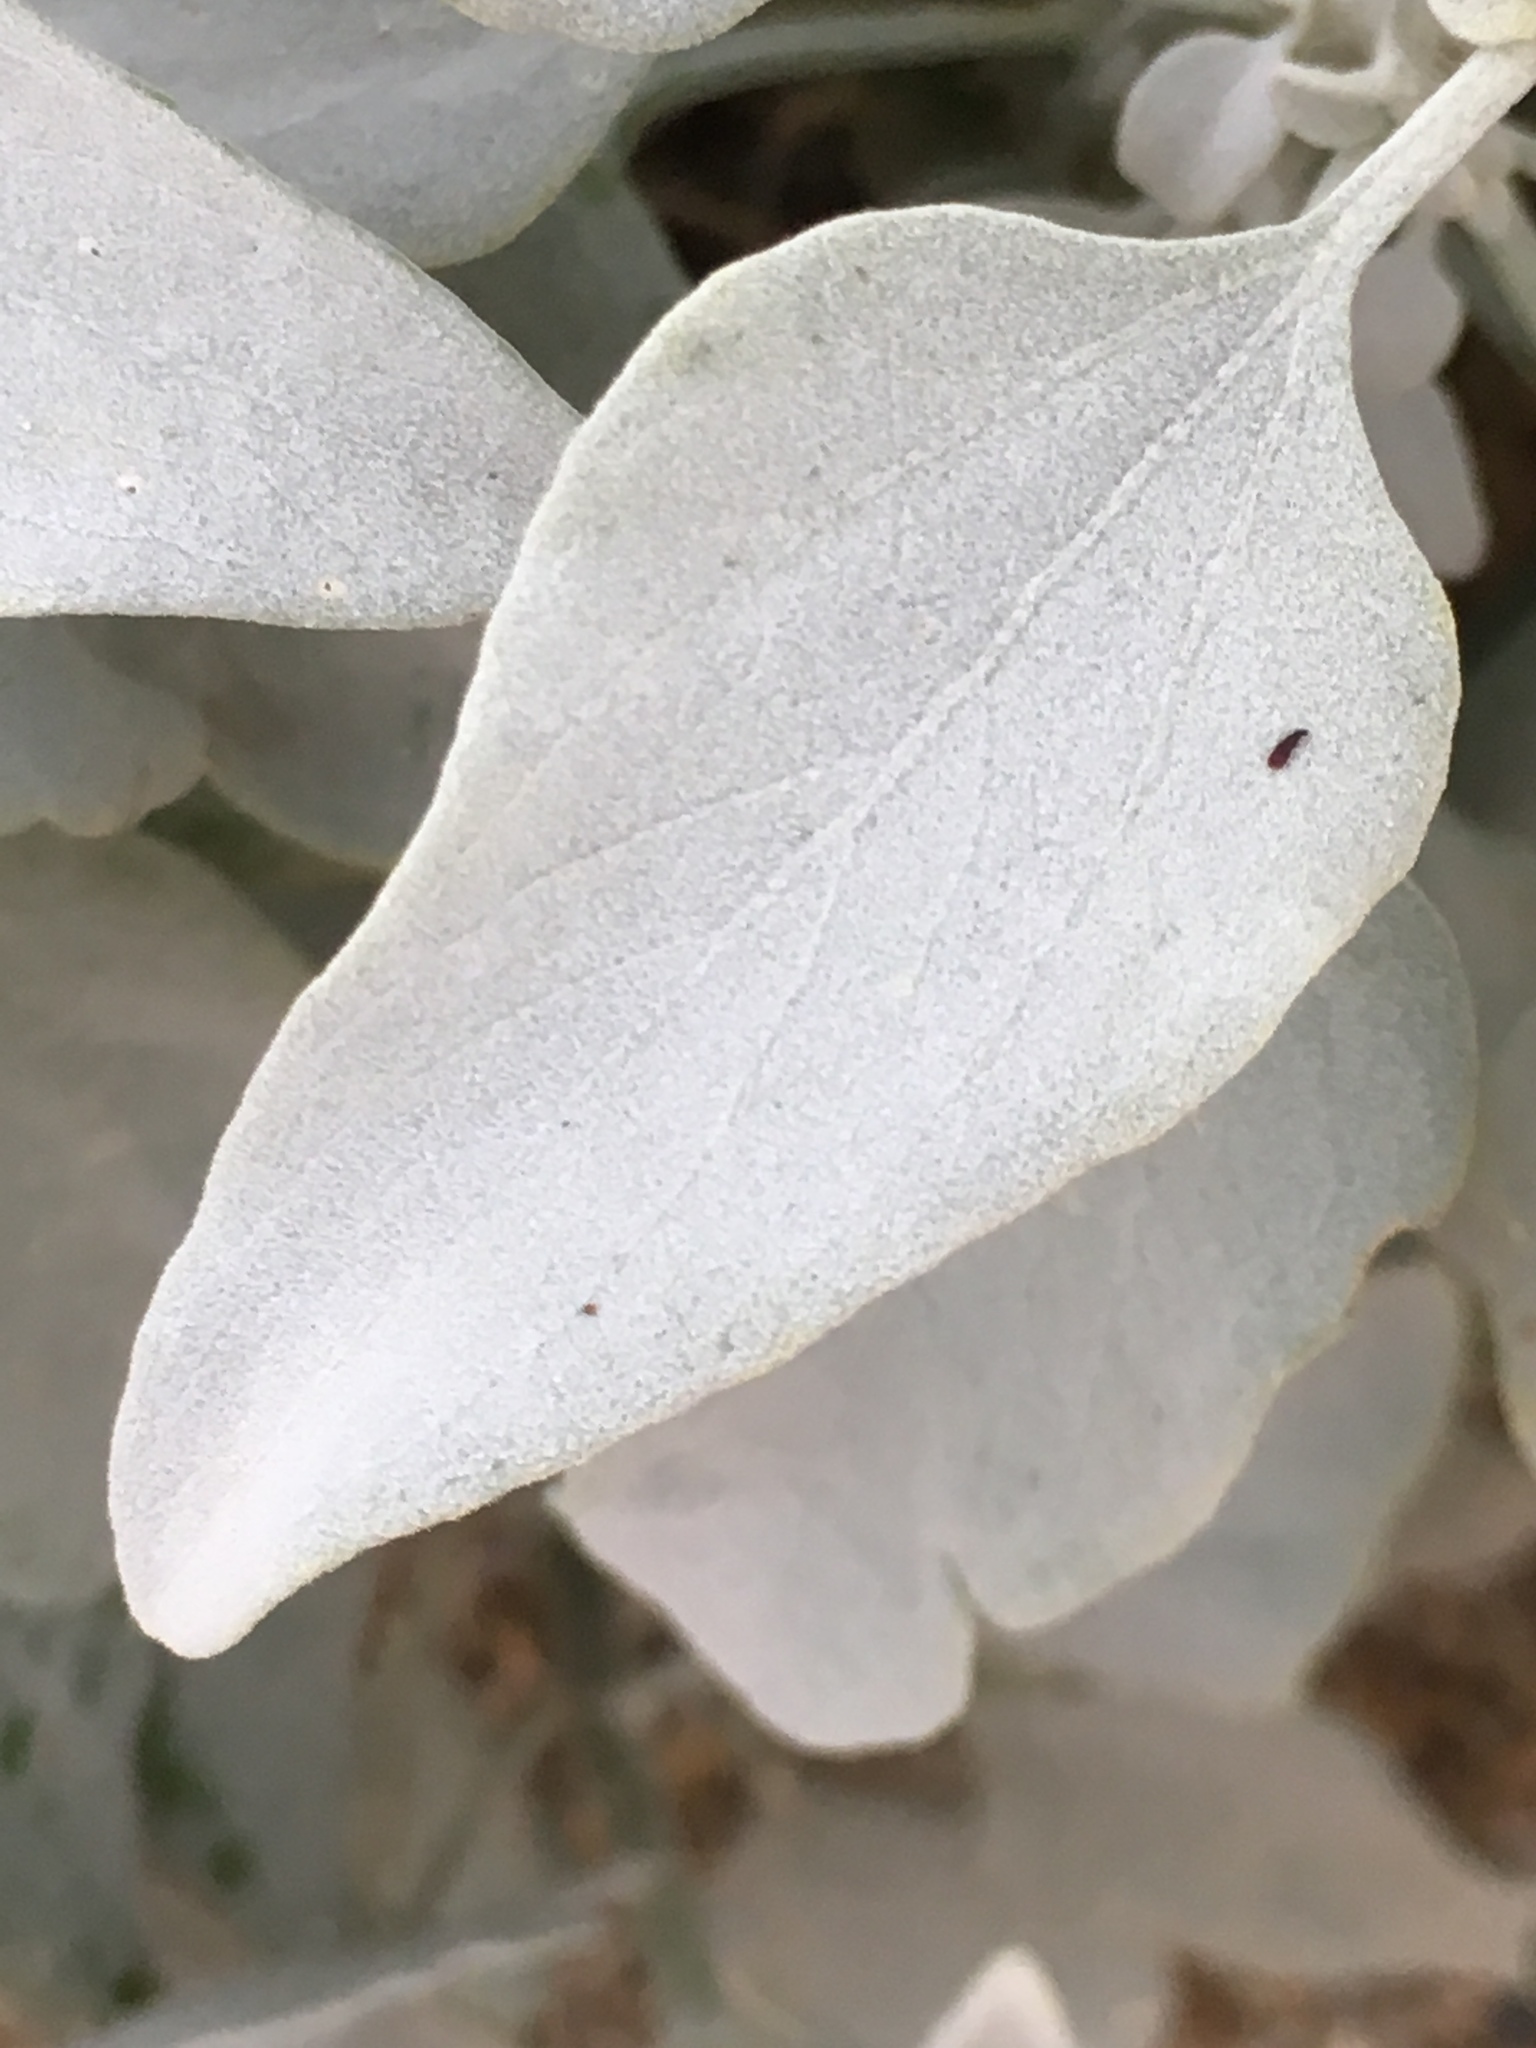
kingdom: Plantae
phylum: Tracheophyta
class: Magnoliopsida
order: Asterales
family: Asteraceae
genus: Encelia
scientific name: Encelia farinosa
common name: Brittlebush
